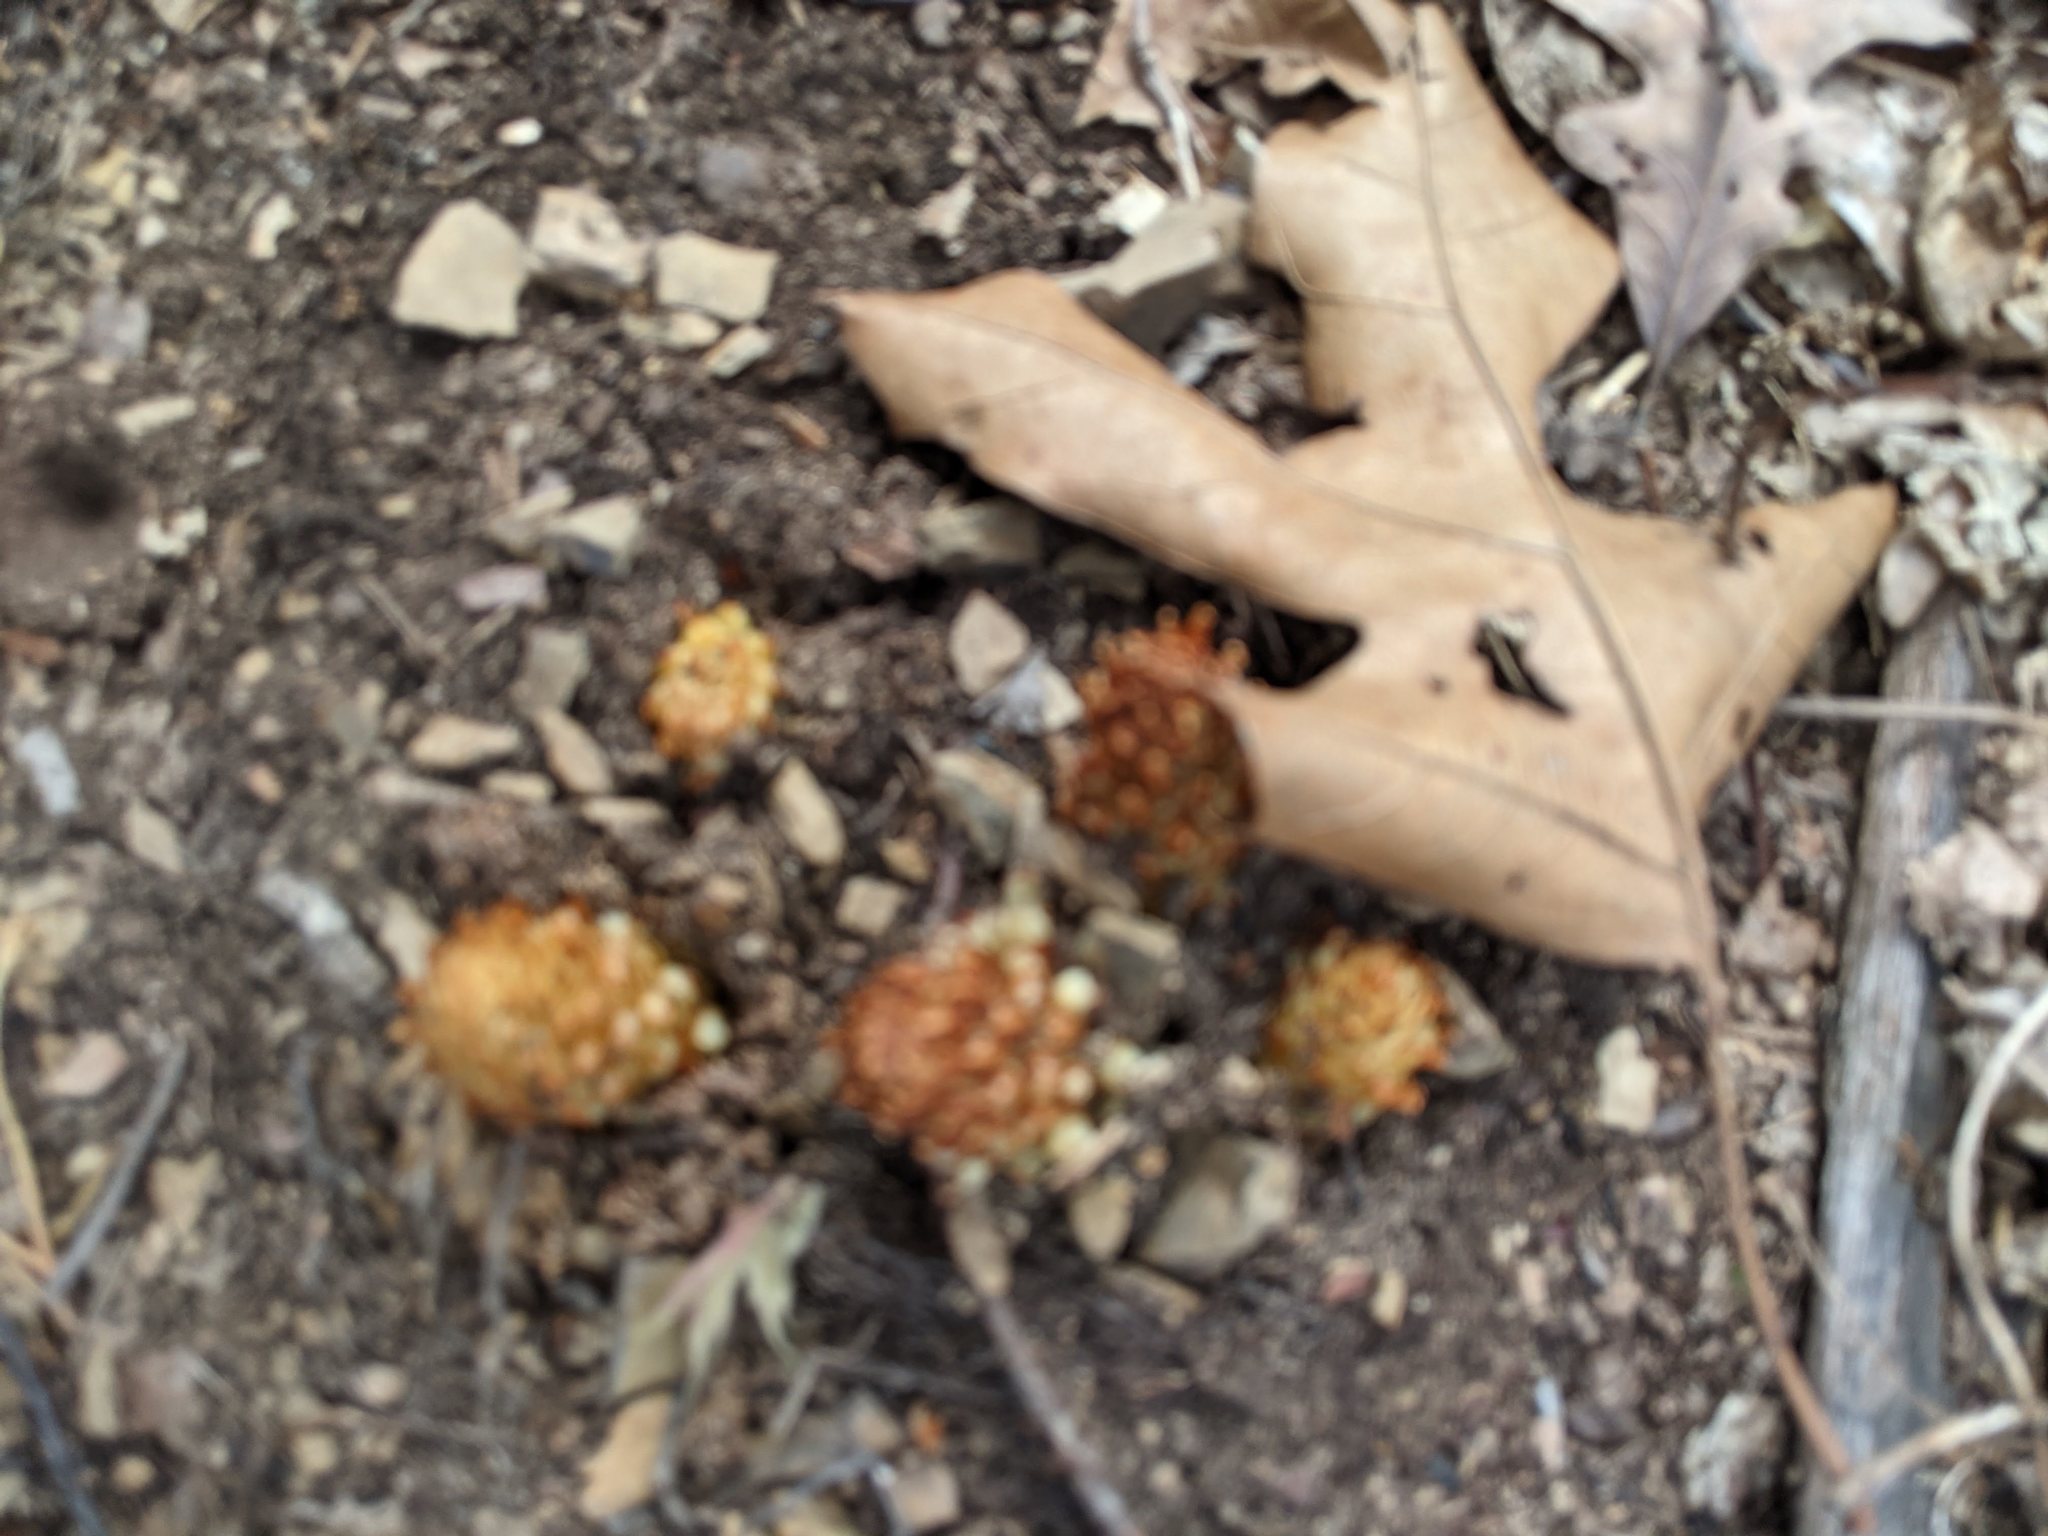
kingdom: Plantae
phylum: Tracheophyta
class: Magnoliopsida
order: Lamiales
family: Orobanchaceae
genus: Conopholis
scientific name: Conopholis americana
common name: American cancer-root
